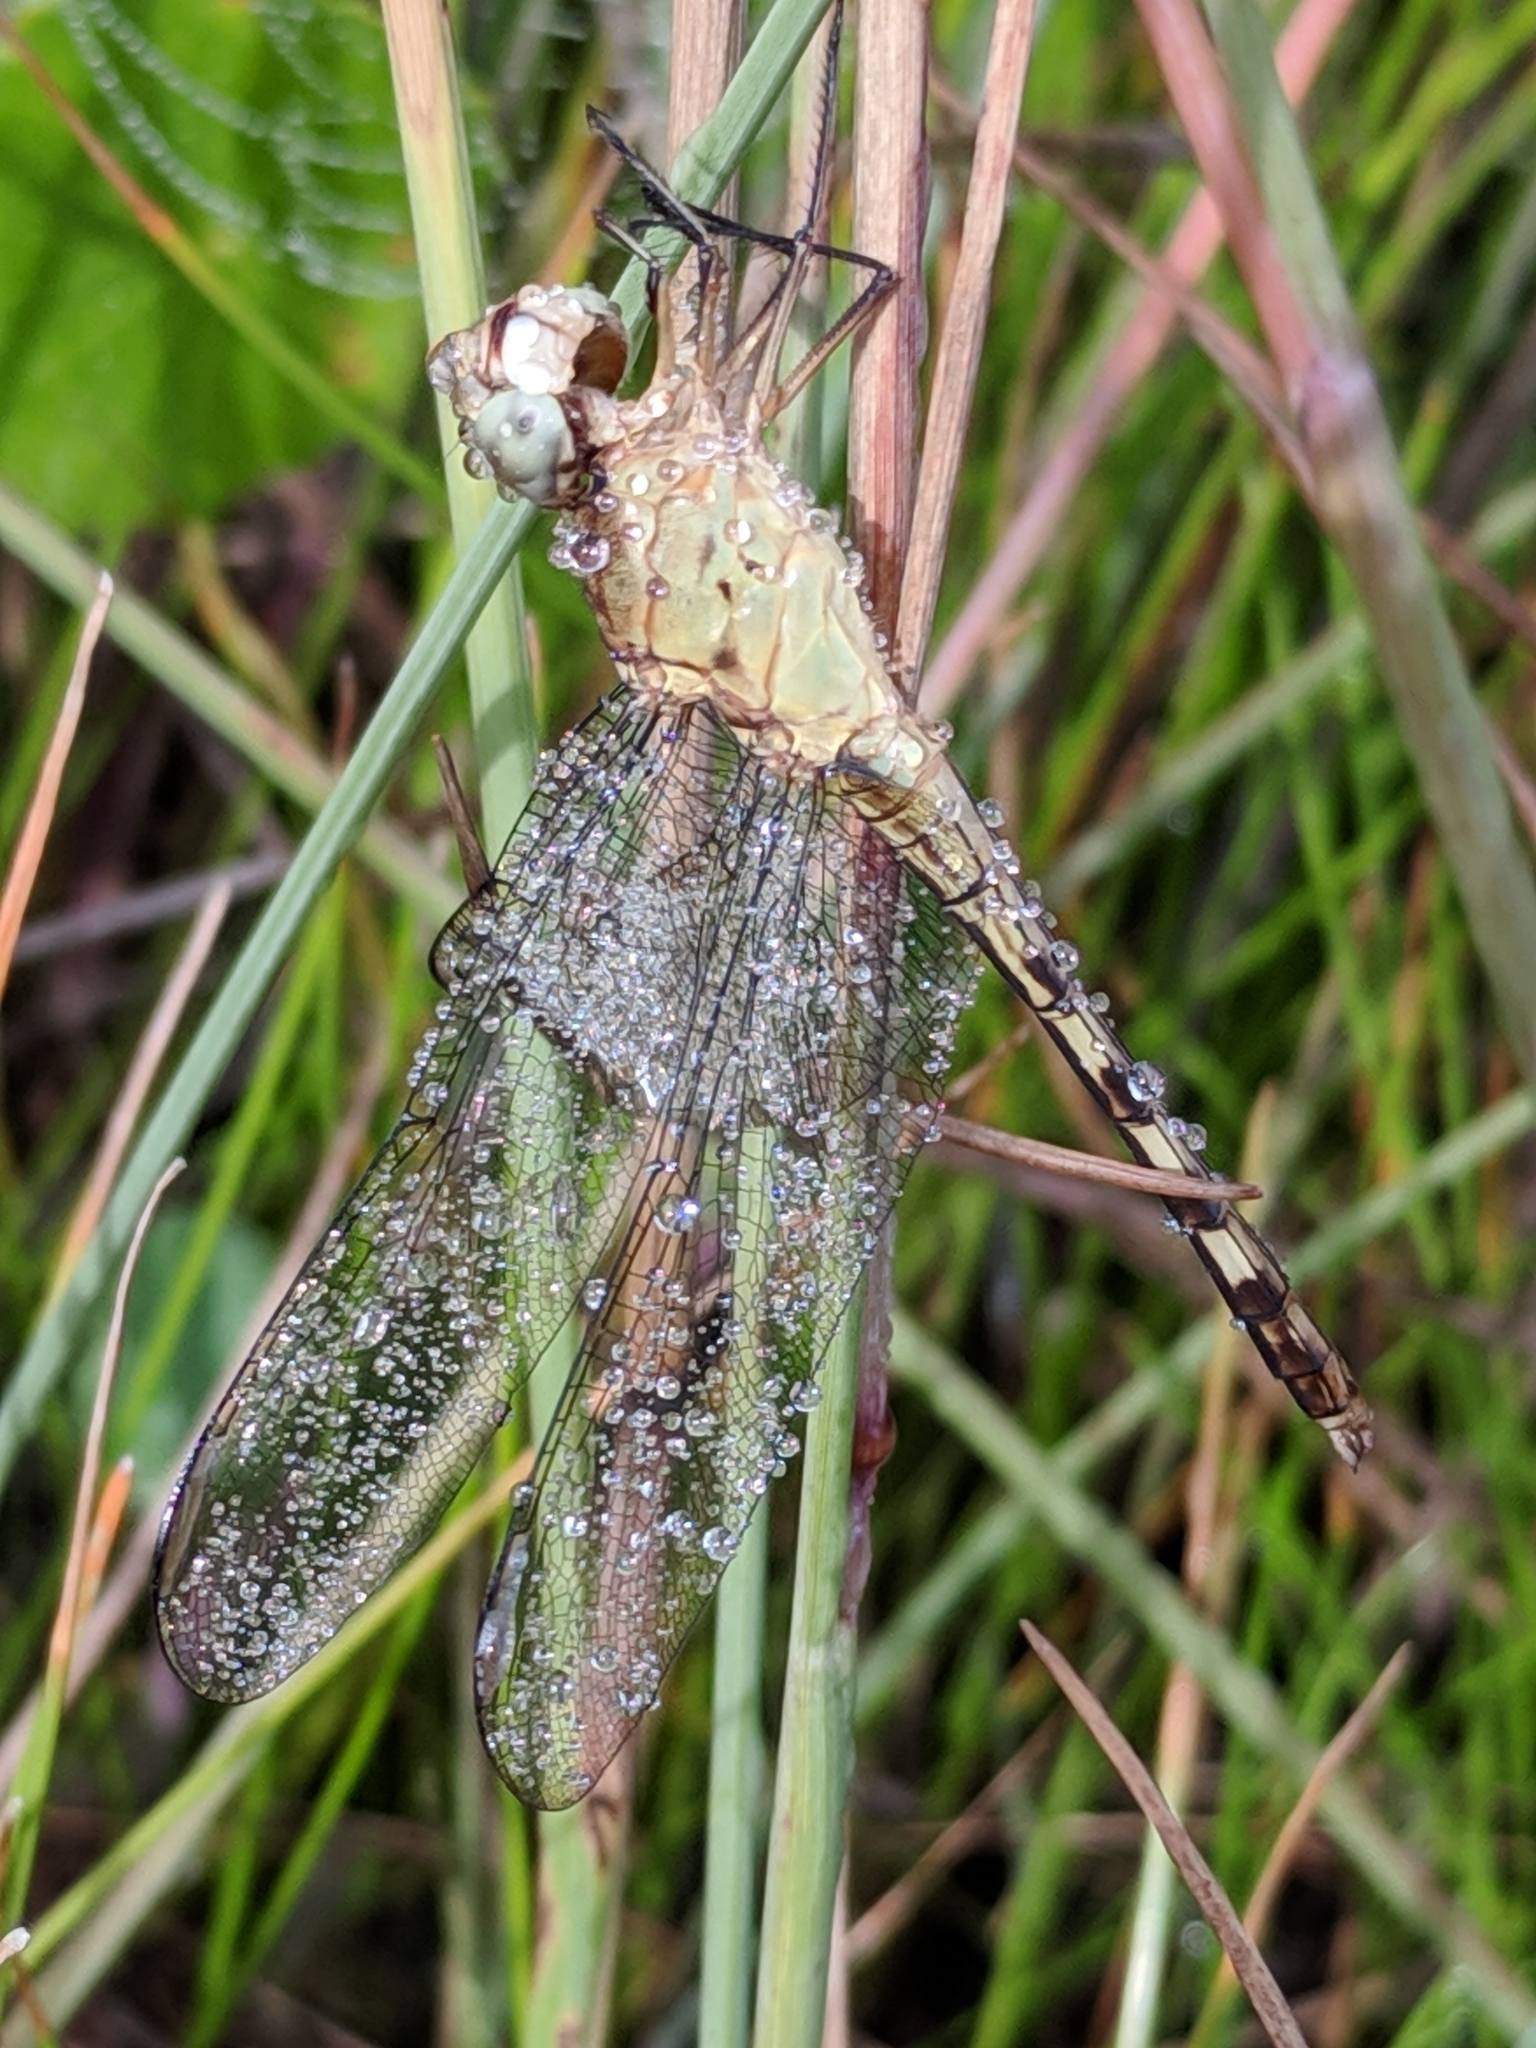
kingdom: Animalia
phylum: Arthropoda
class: Insecta
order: Odonata
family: Libellulidae
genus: Erythrodiplax
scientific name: Erythrodiplax umbrata
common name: Band-winged dragonlet
